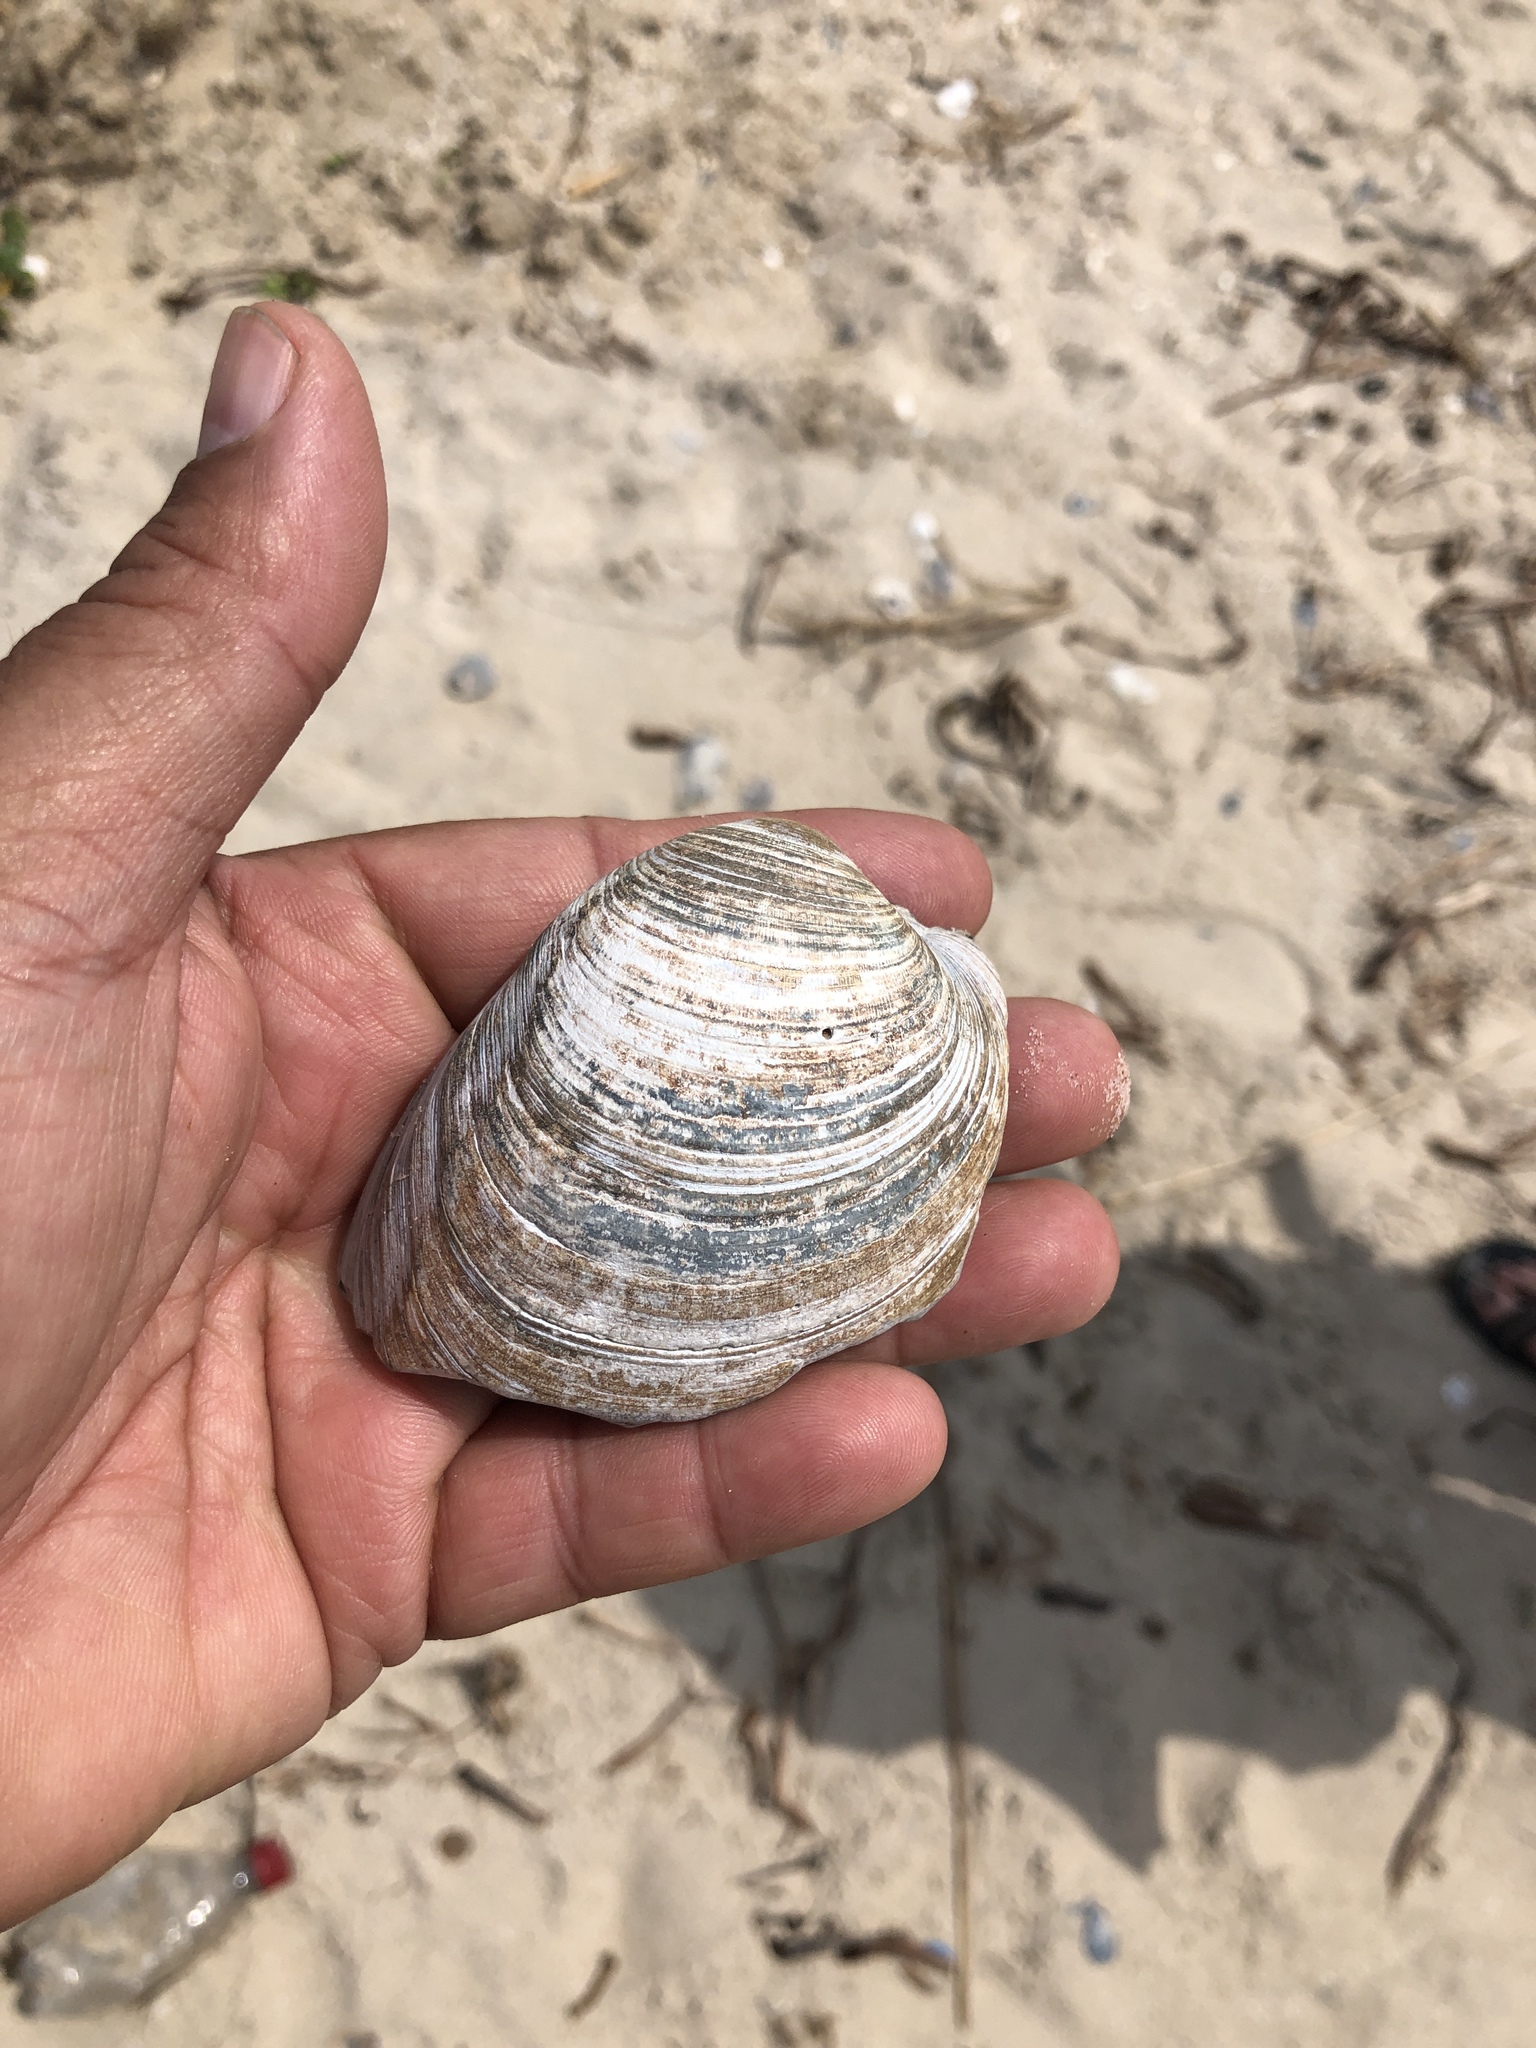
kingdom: Animalia
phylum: Mollusca
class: Bivalvia
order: Venerida
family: Veneridae
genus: Mercenaria
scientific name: Mercenaria campechiensis
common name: Südliche quahog-muschel
